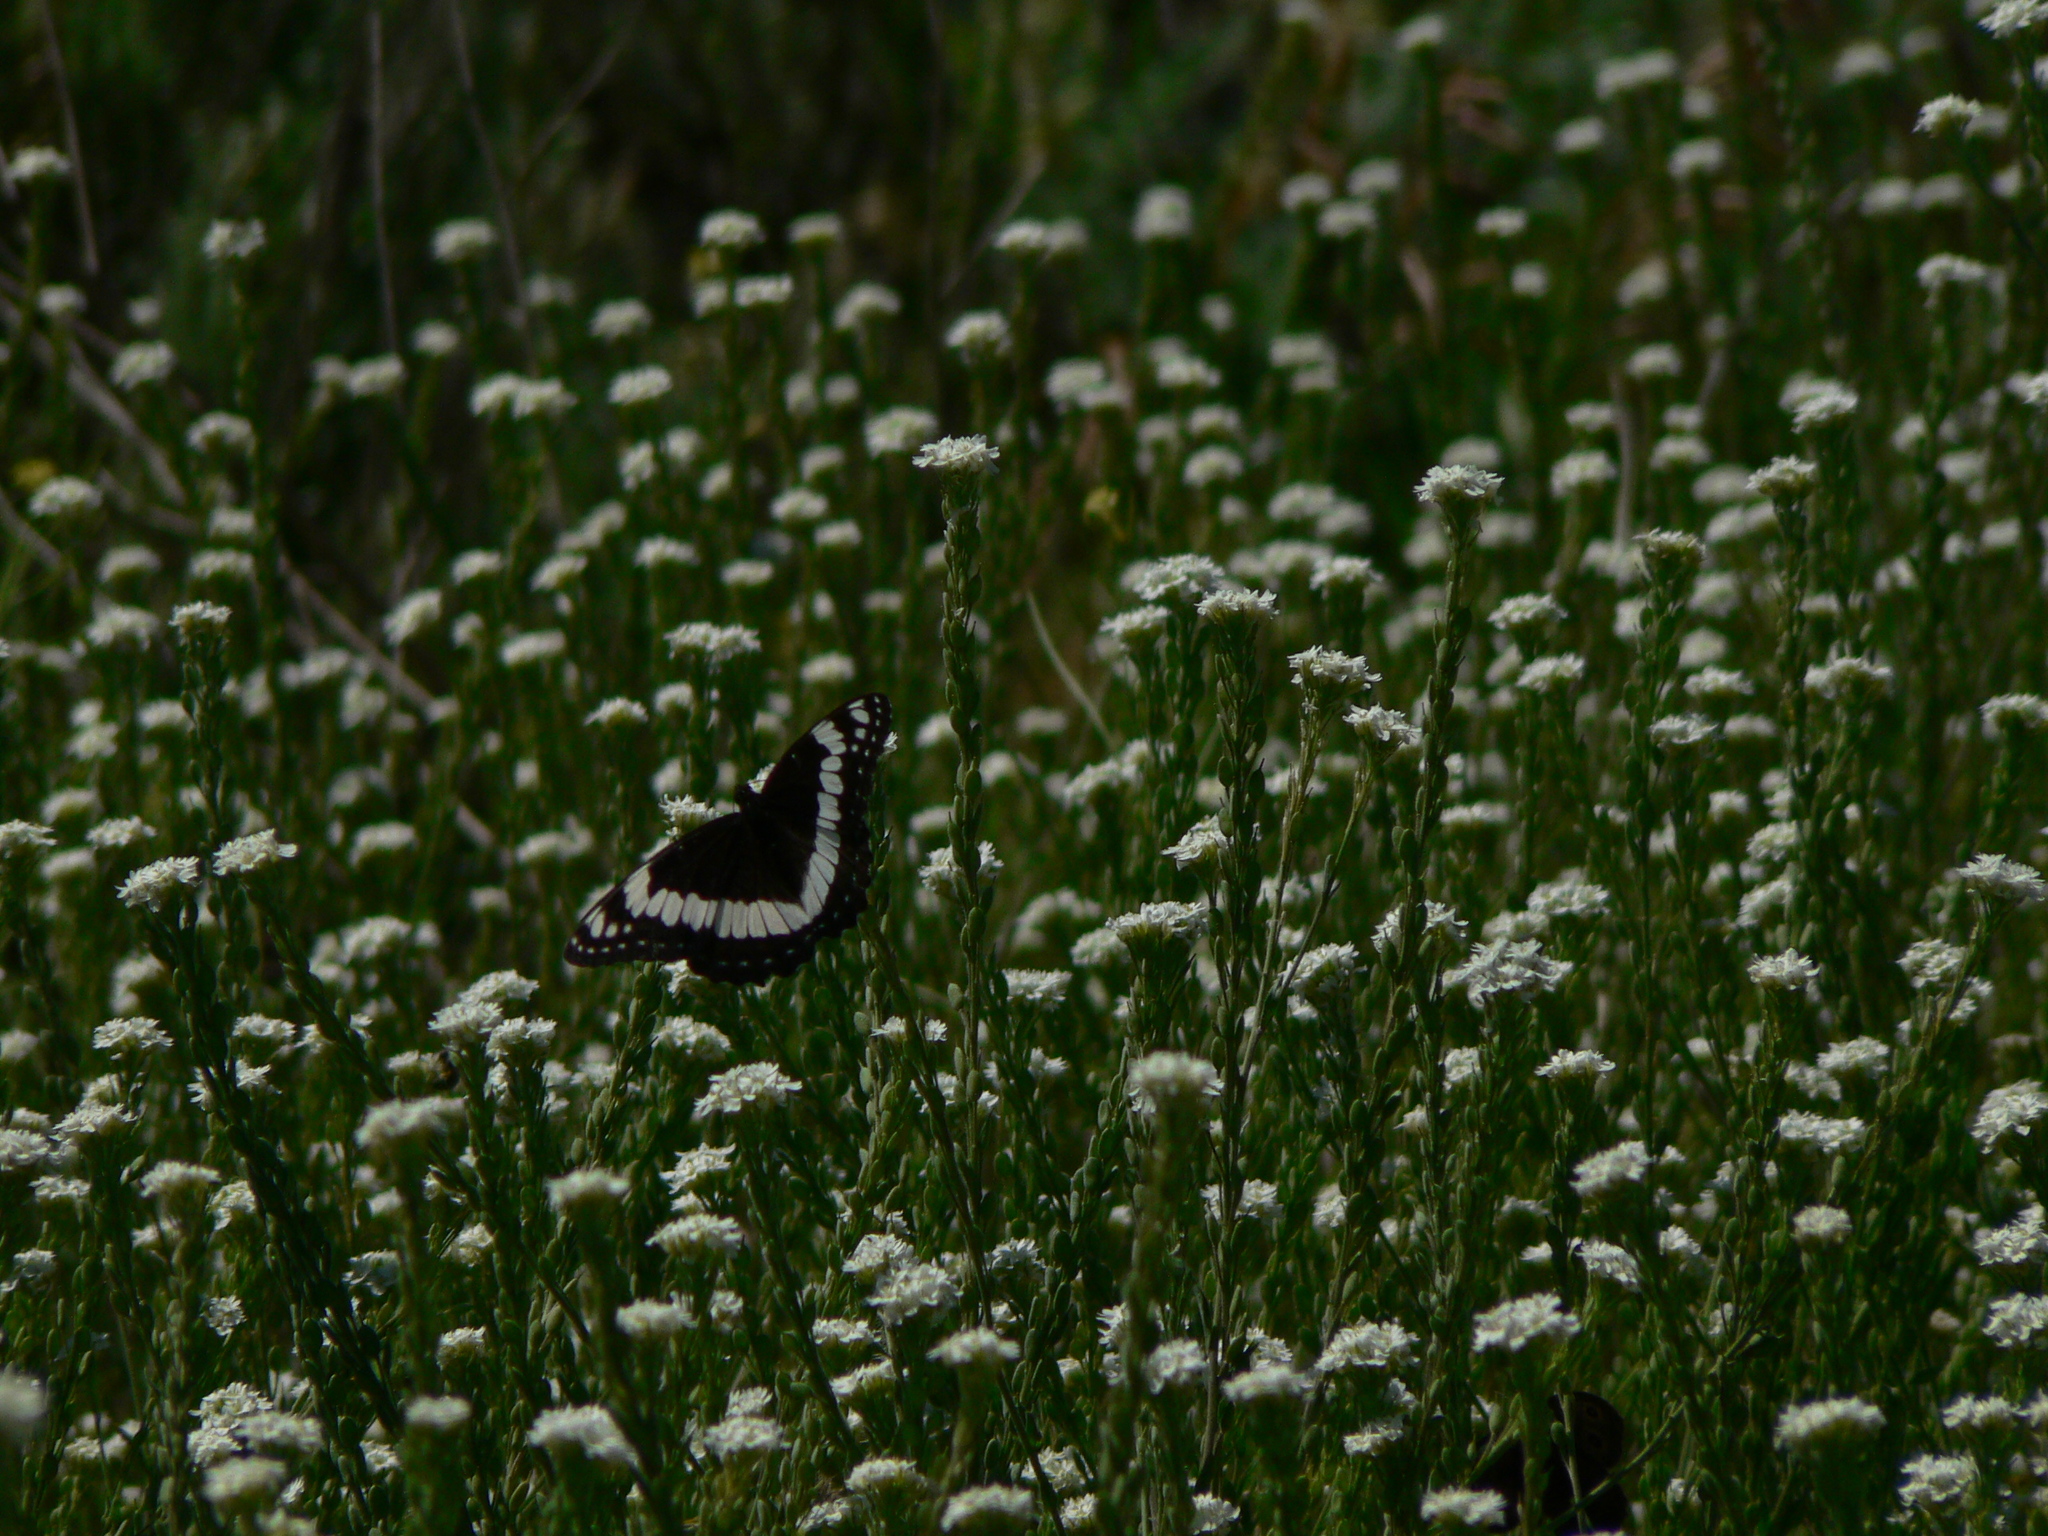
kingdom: Animalia
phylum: Arthropoda
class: Insecta
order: Lepidoptera
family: Nymphalidae
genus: Limenitis
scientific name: Limenitis weidemeyerii
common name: Weidemeyer's admiral
